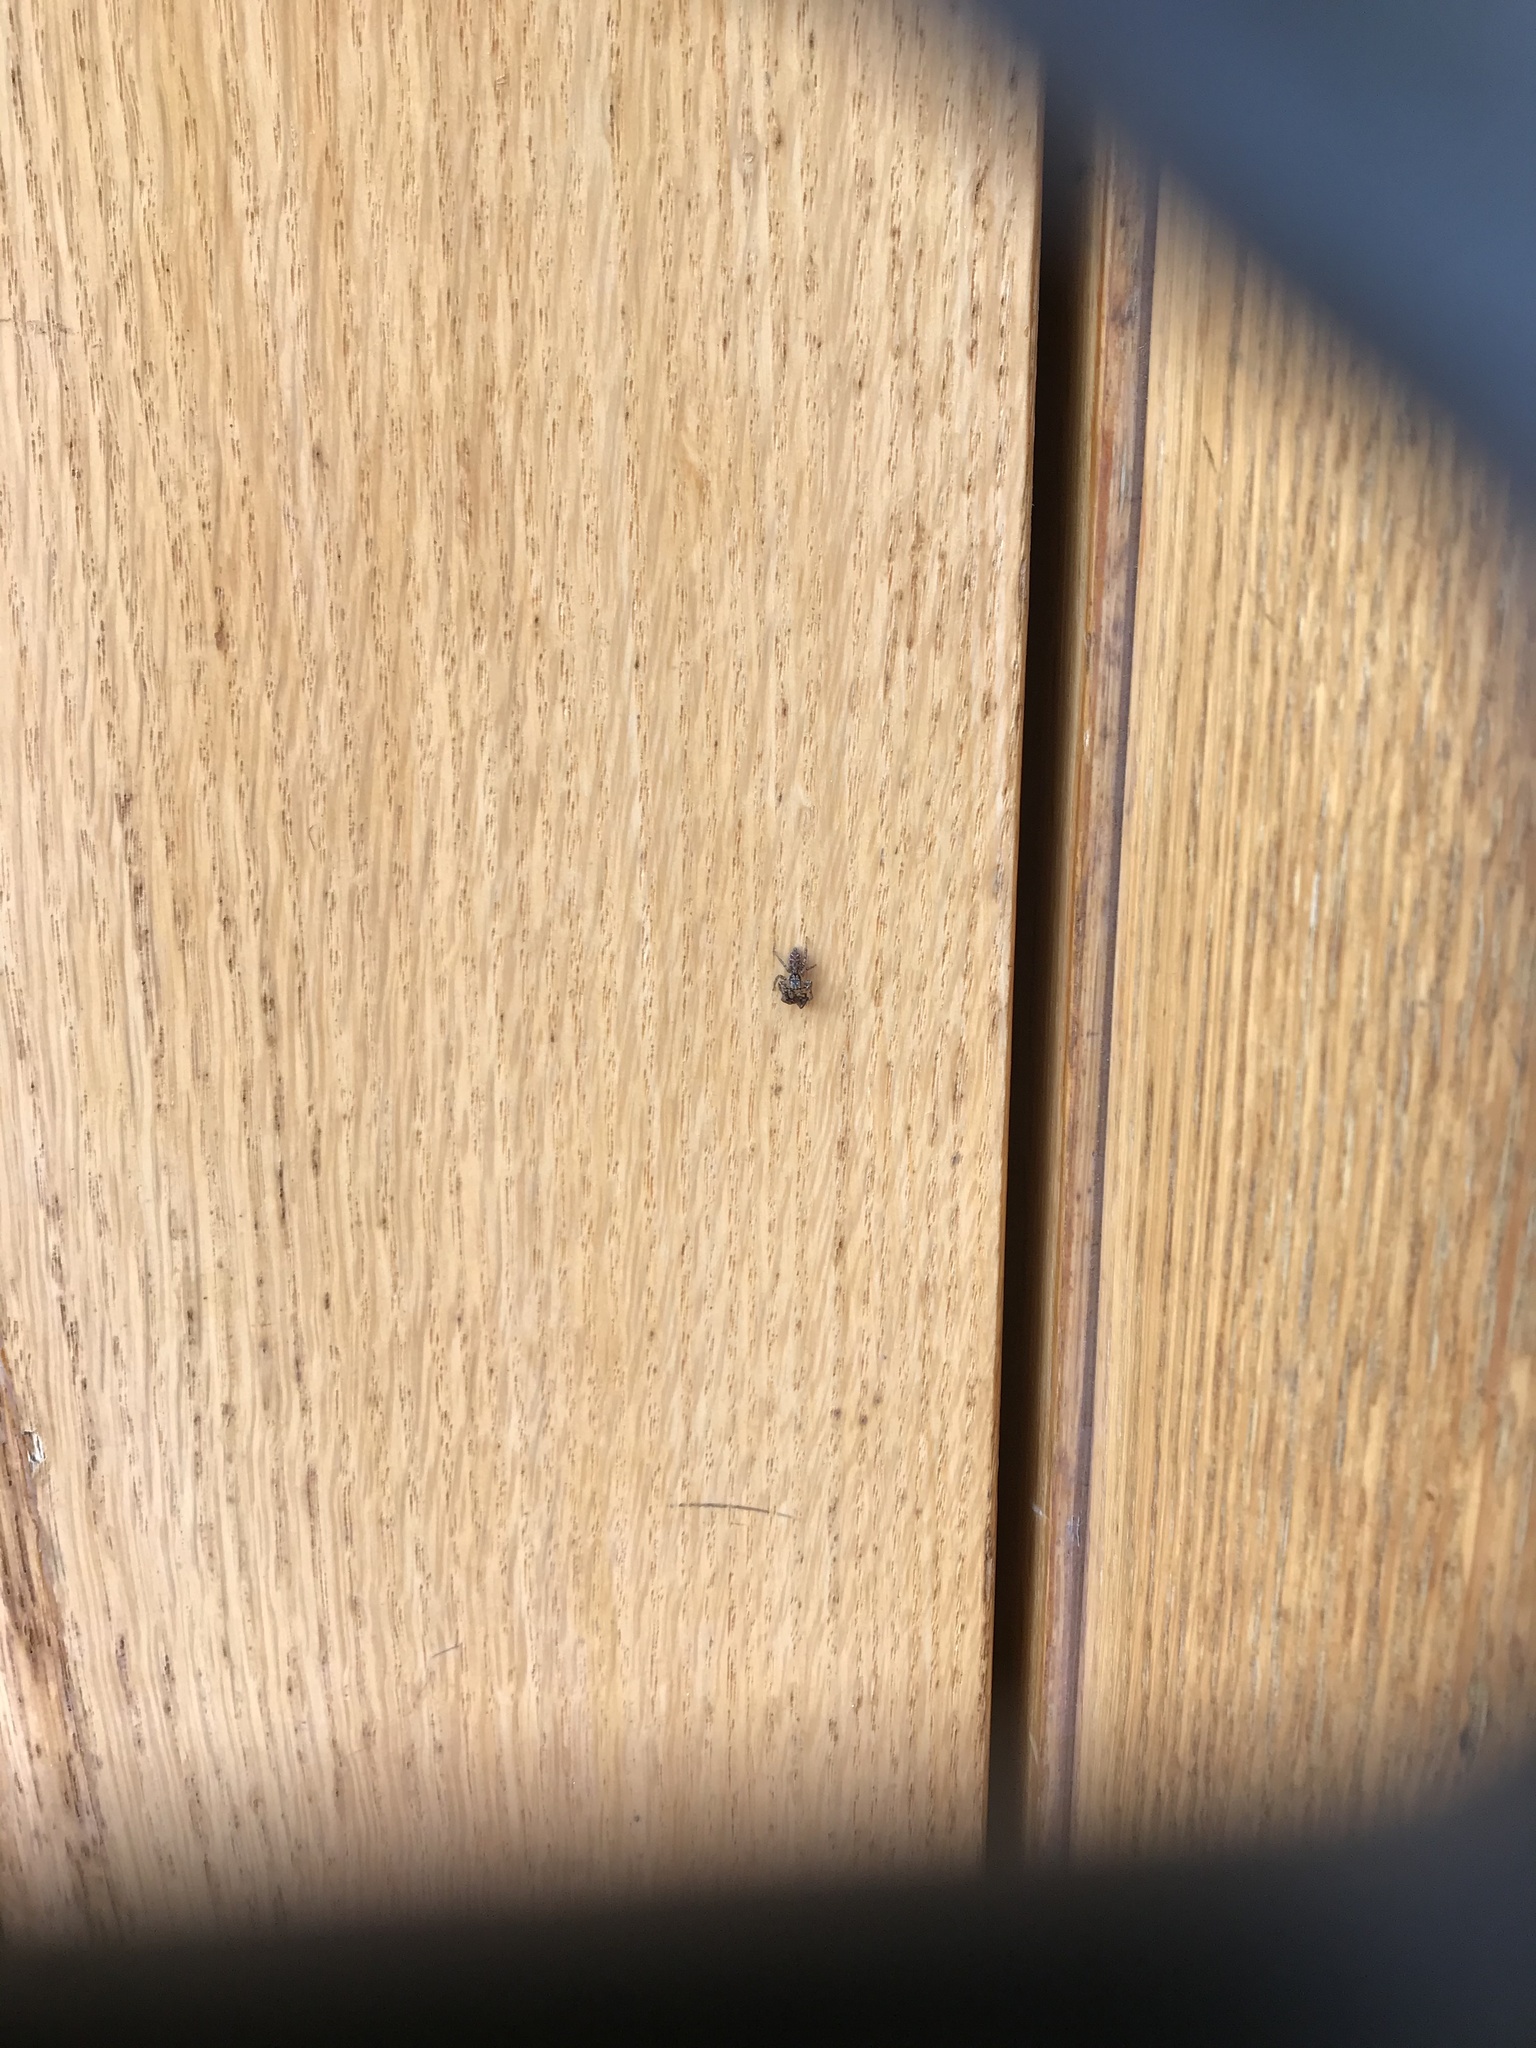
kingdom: Animalia
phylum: Arthropoda
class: Arachnida
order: Araneae
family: Salticidae
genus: Maevia
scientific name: Maevia inclemens
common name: Dimorphic jumper
